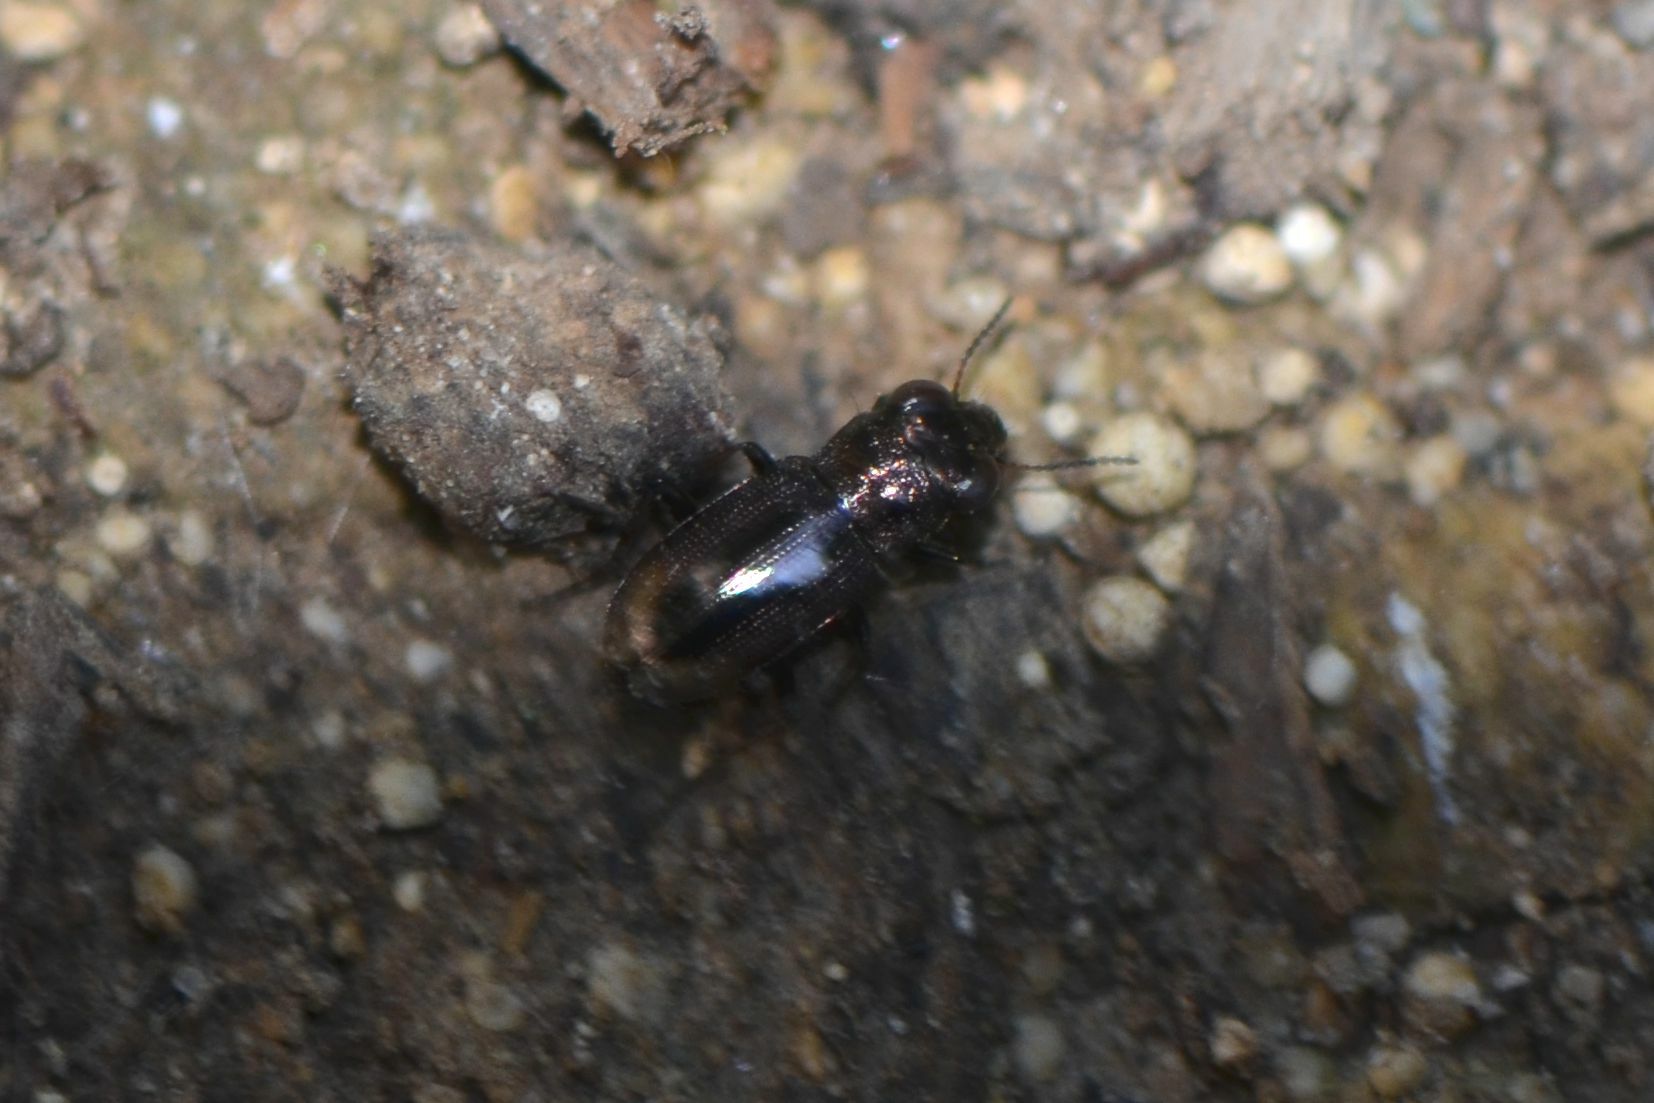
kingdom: Animalia
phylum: Arthropoda
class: Insecta
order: Coleoptera
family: Carabidae
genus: Notiophilus
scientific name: Notiophilus biguttatus
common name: Spotted gazelle beetle
